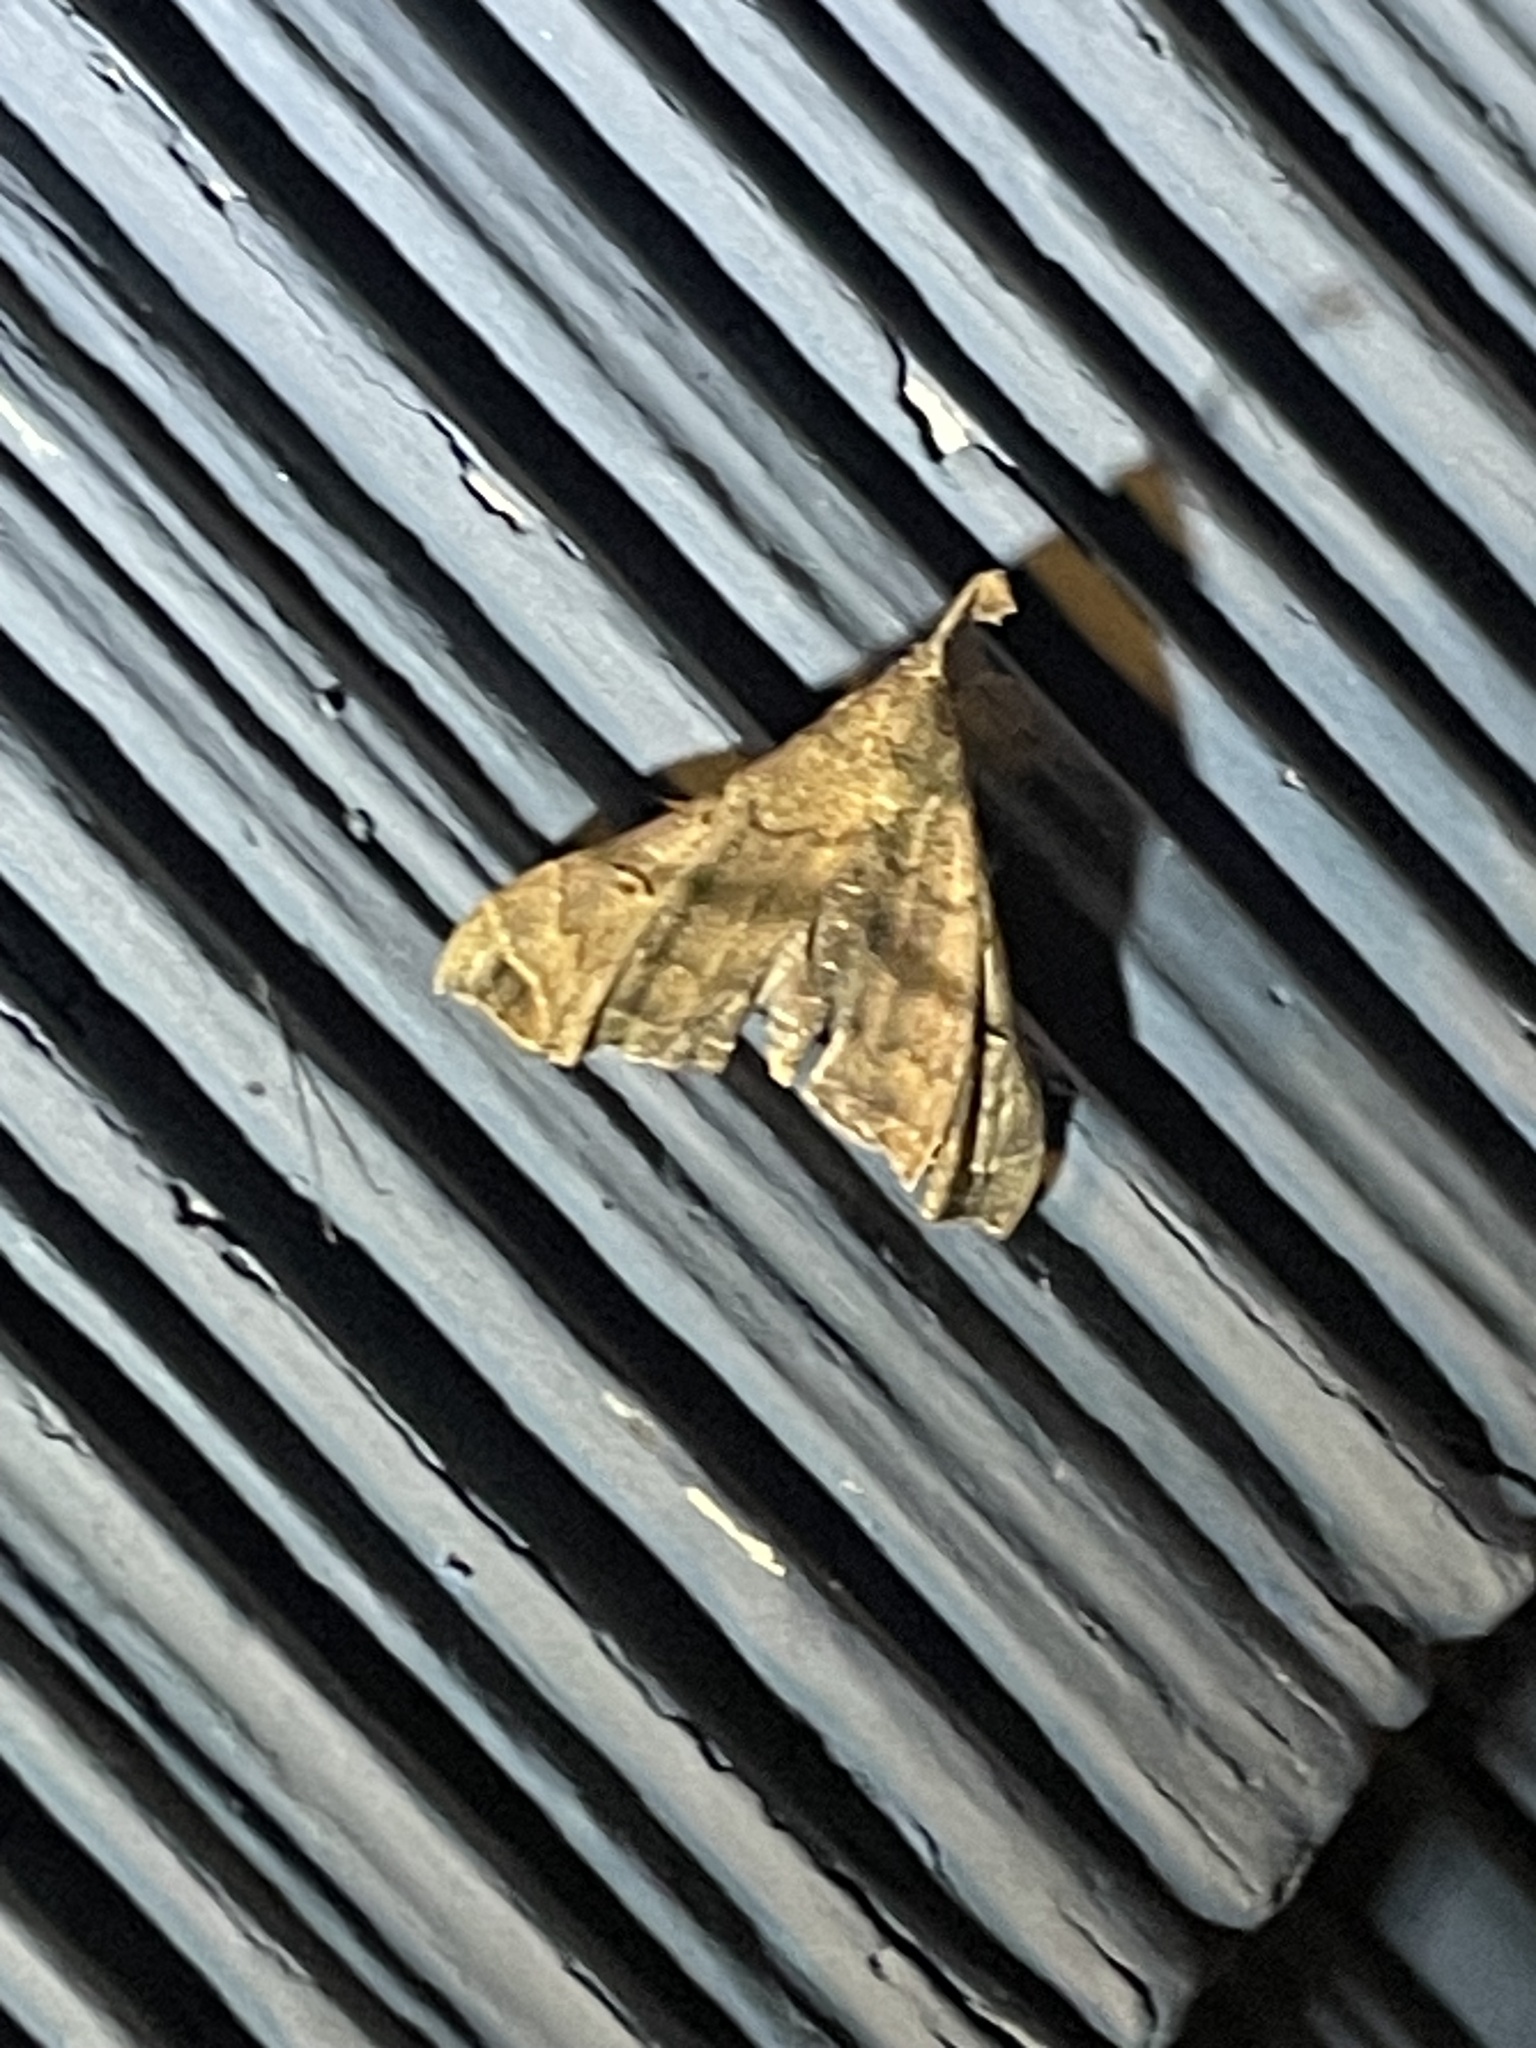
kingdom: Animalia
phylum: Arthropoda
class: Insecta
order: Lepidoptera
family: Erebidae
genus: Palthis
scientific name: Palthis asopialis
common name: Faint-spotted palthis moth
